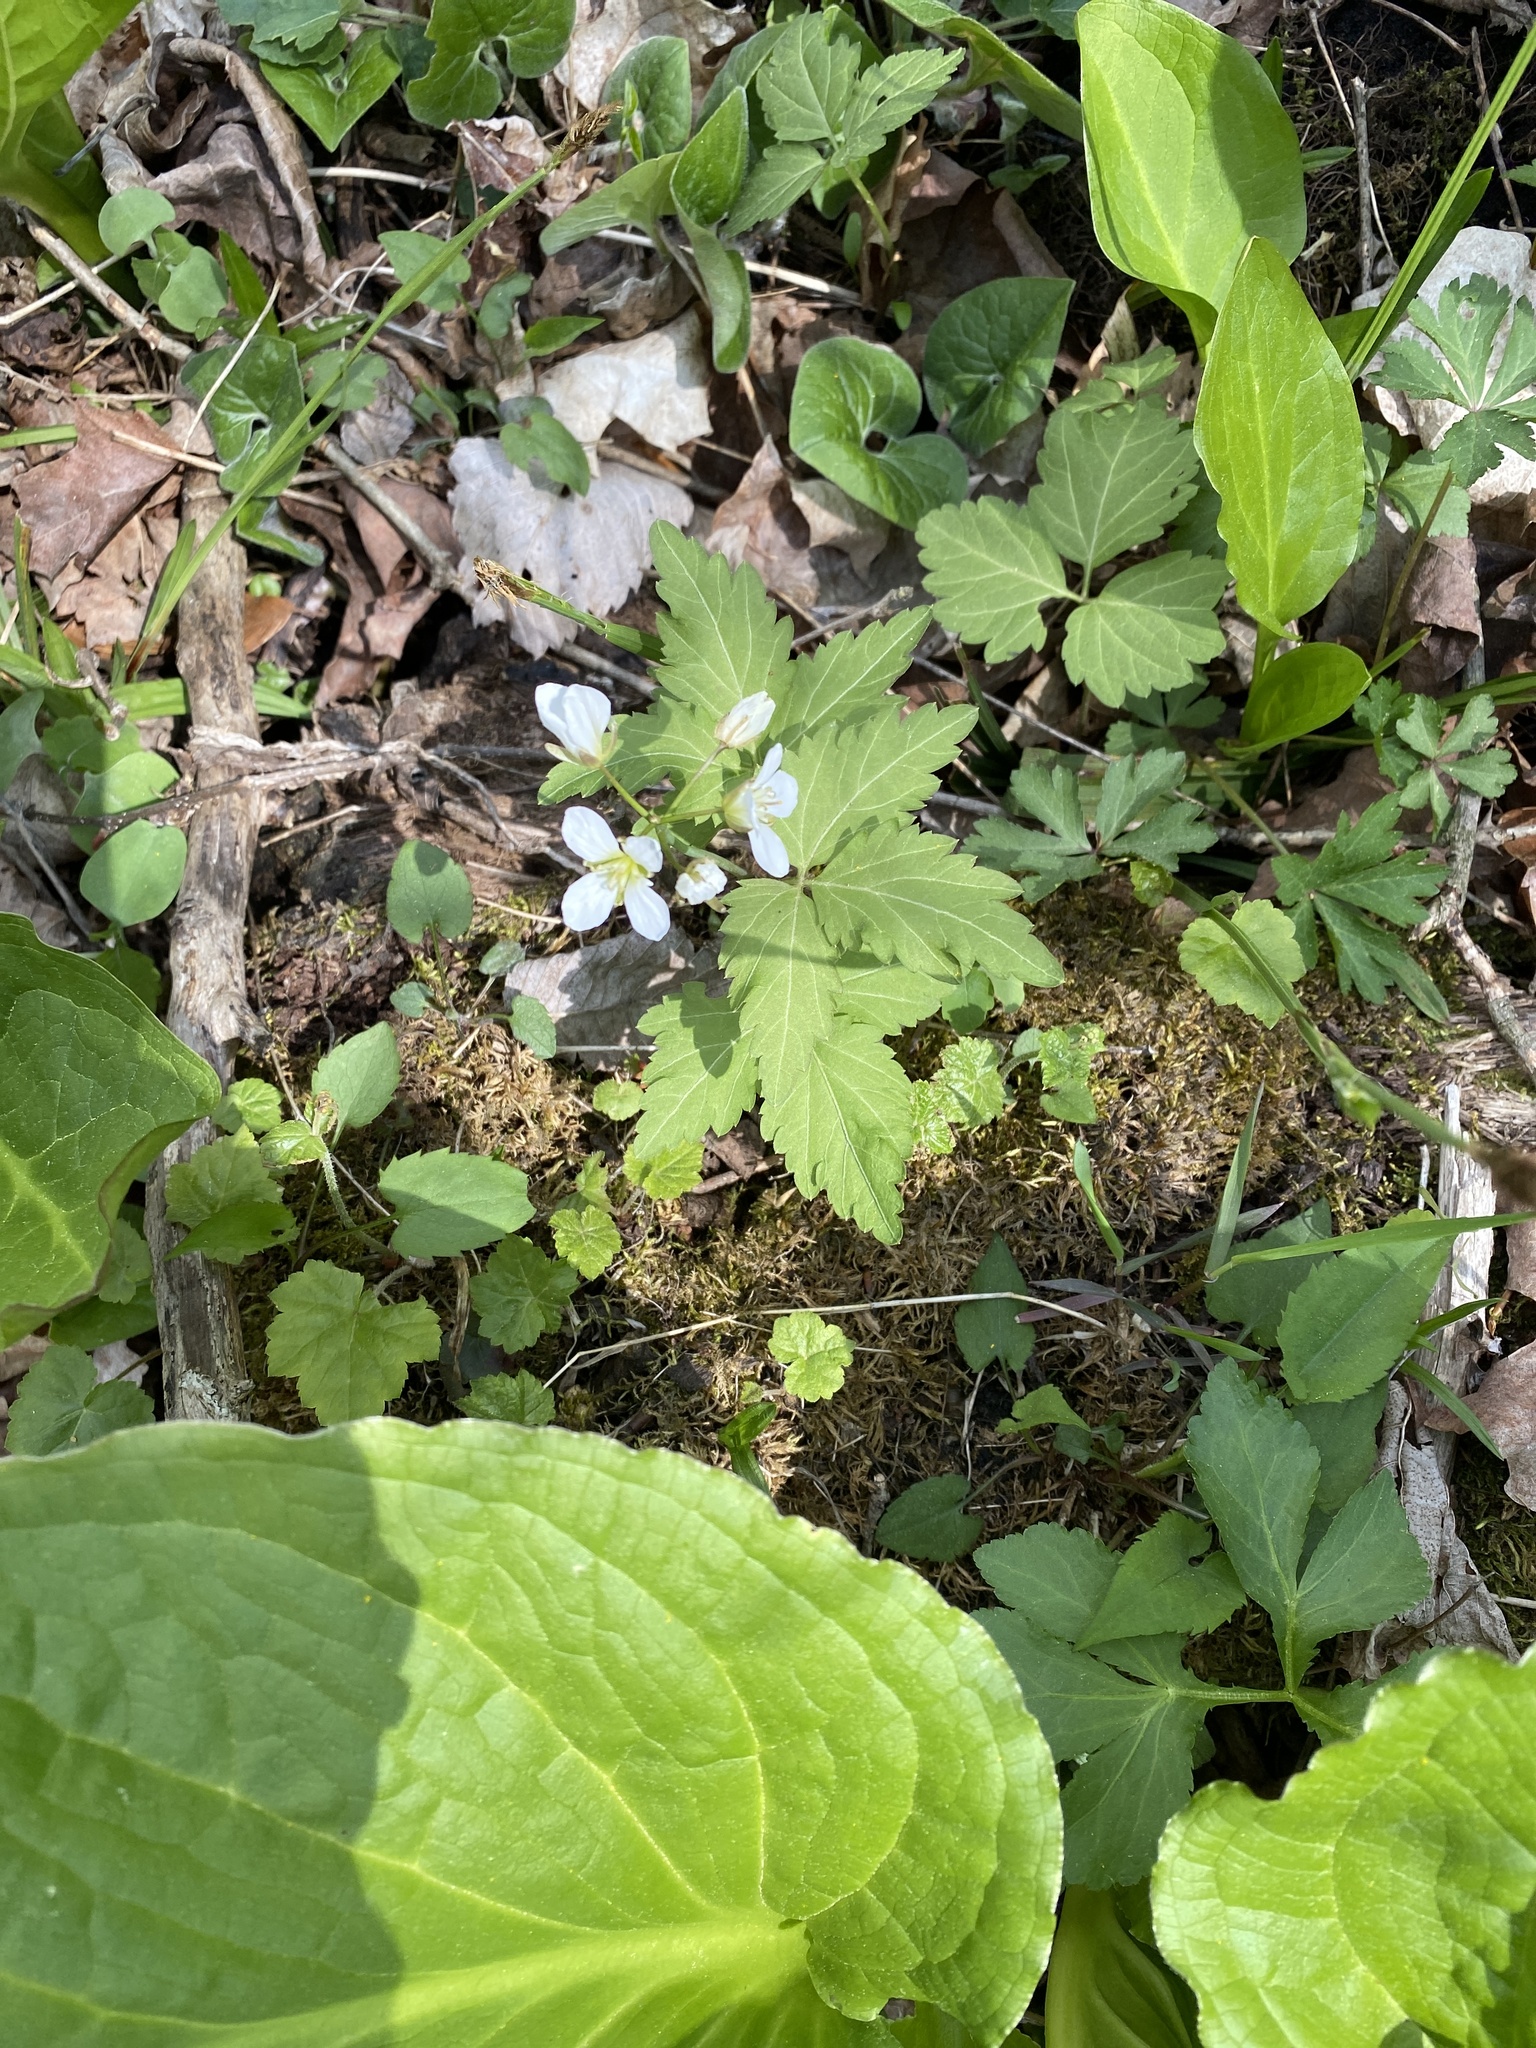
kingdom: Plantae
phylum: Tracheophyta
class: Magnoliopsida
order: Brassicales
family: Brassicaceae
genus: Cardamine
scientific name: Cardamine diphylla
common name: Broad-leaved toothwort
